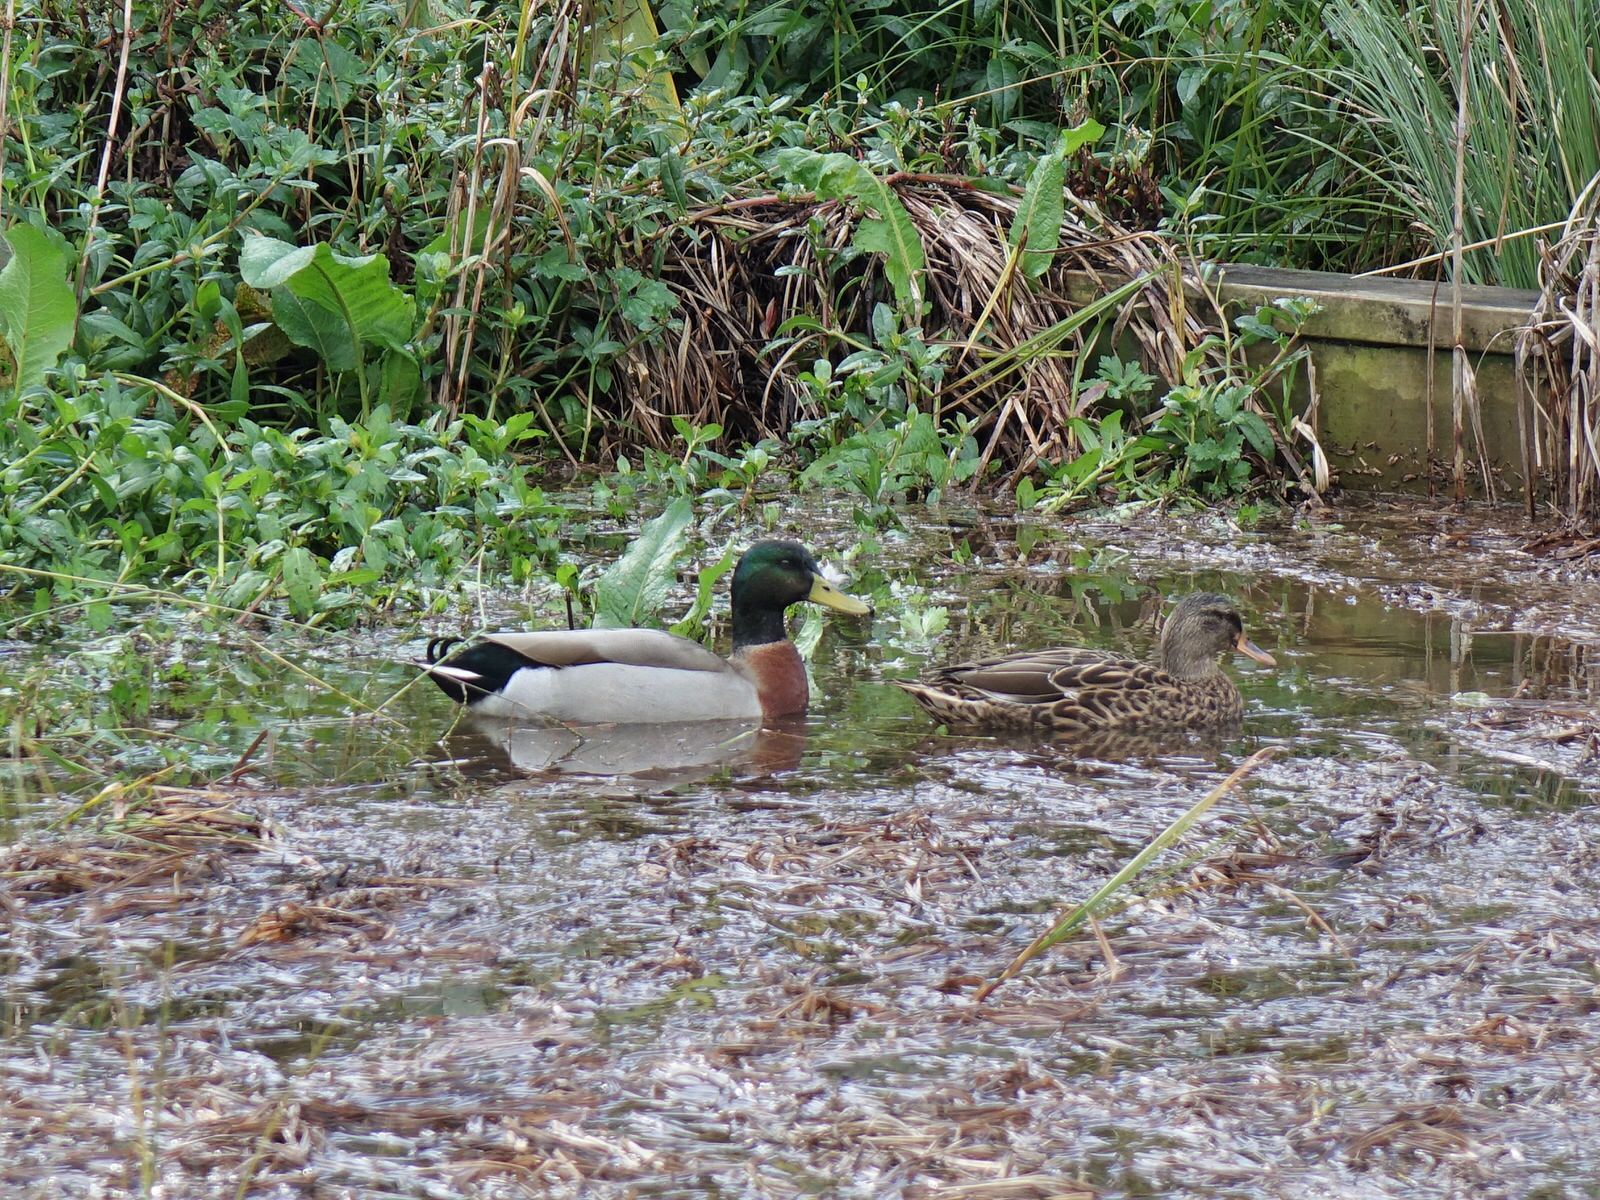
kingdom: Animalia
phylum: Chordata
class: Aves
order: Anseriformes
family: Anatidae
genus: Anas
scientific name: Anas platyrhynchos
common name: Mallard
